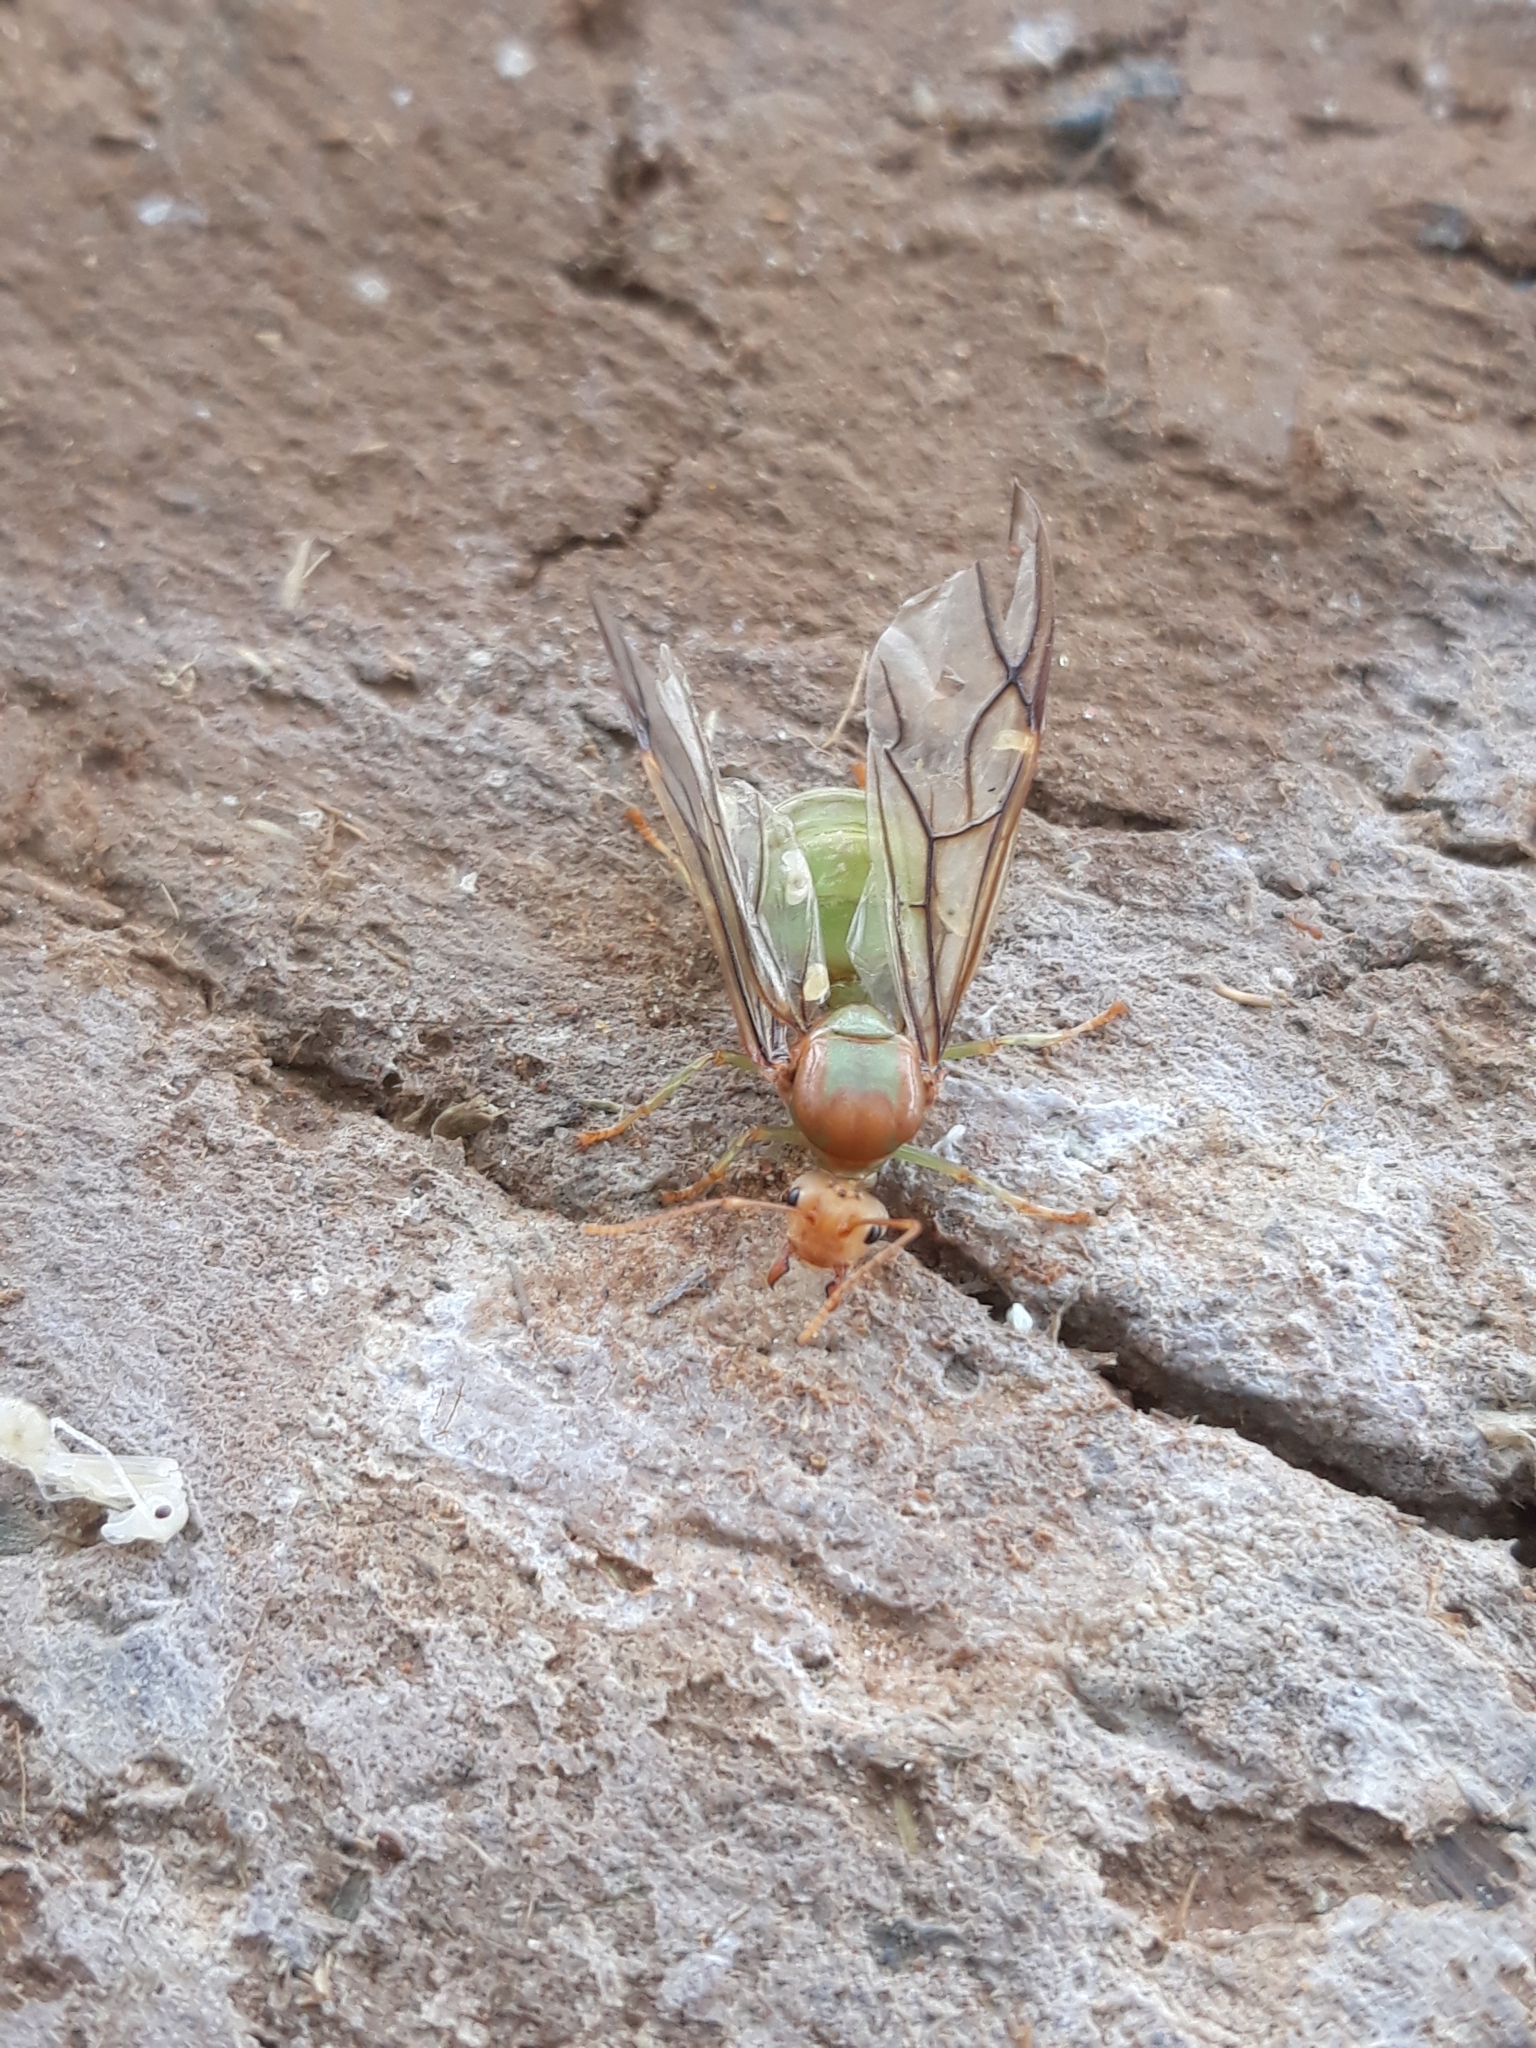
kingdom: Animalia
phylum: Arthropoda
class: Insecta
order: Hymenoptera
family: Formicidae
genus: Oecophylla
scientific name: Oecophylla smaragdina
